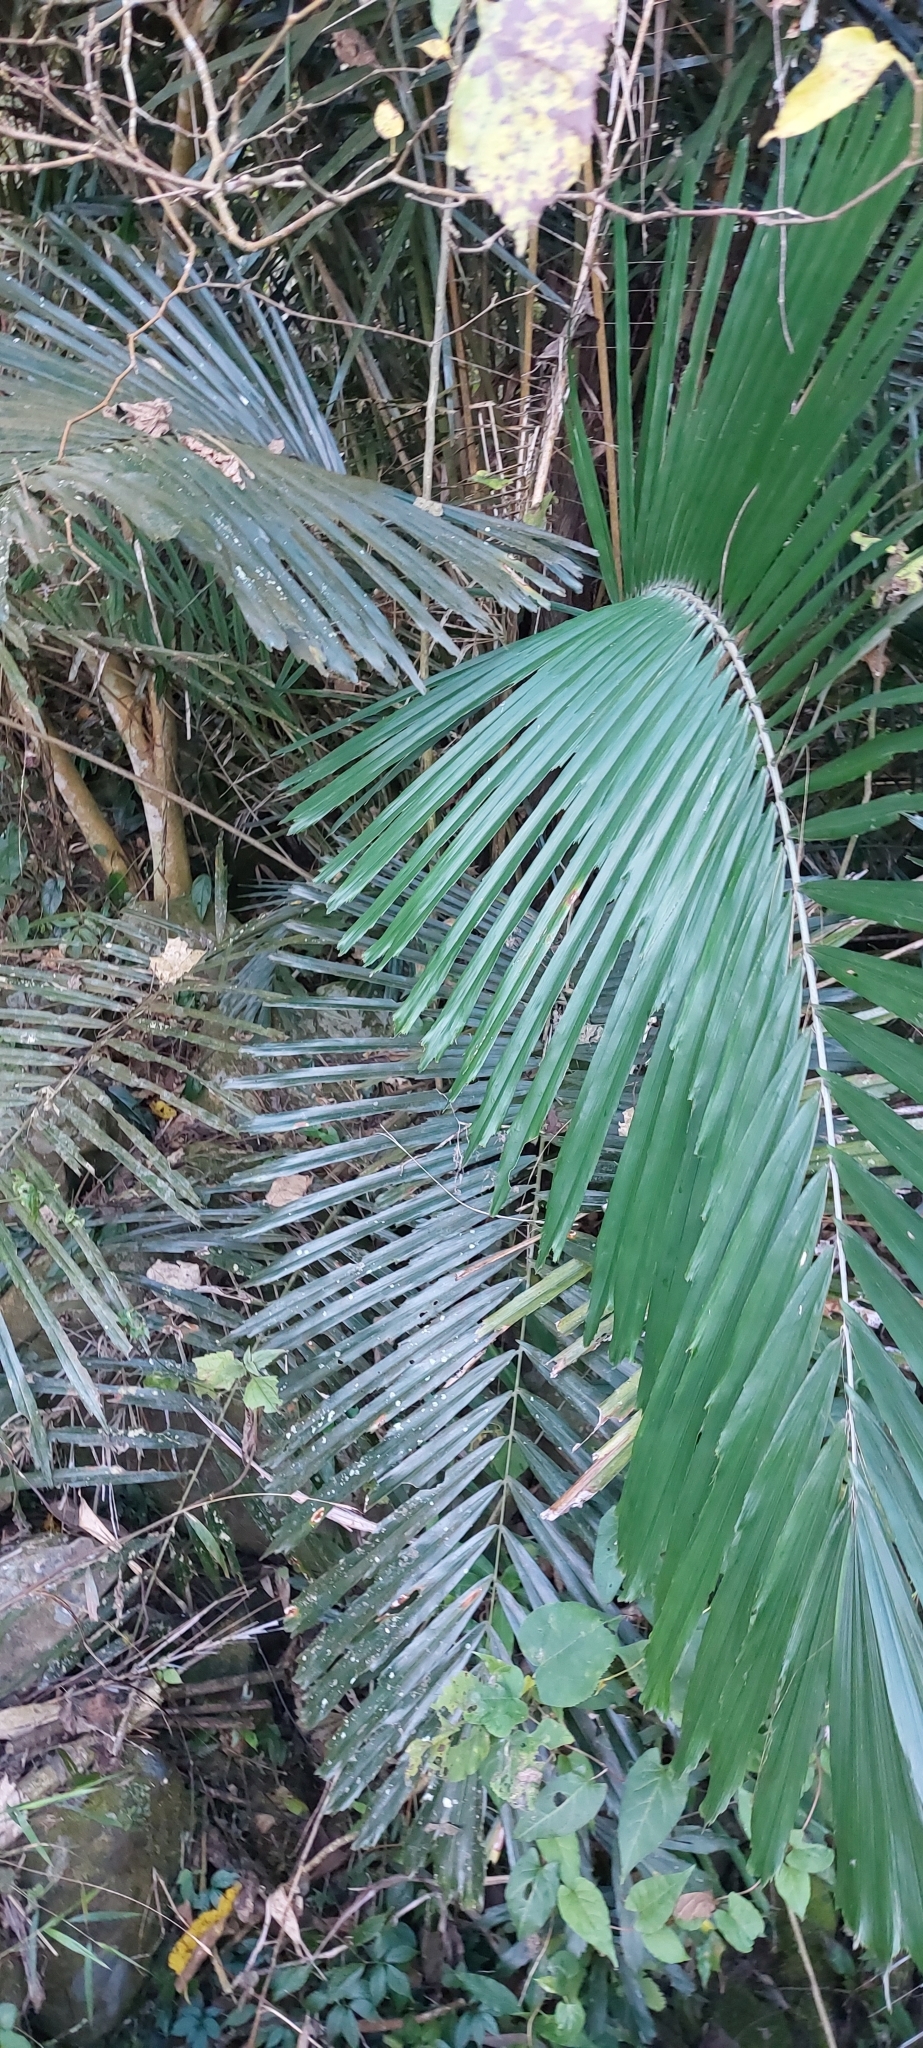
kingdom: Plantae
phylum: Tracheophyta
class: Liliopsida
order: Arecales
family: Arecaceae
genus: Arenga
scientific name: Arenga engleri
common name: Formosan sugar palm
